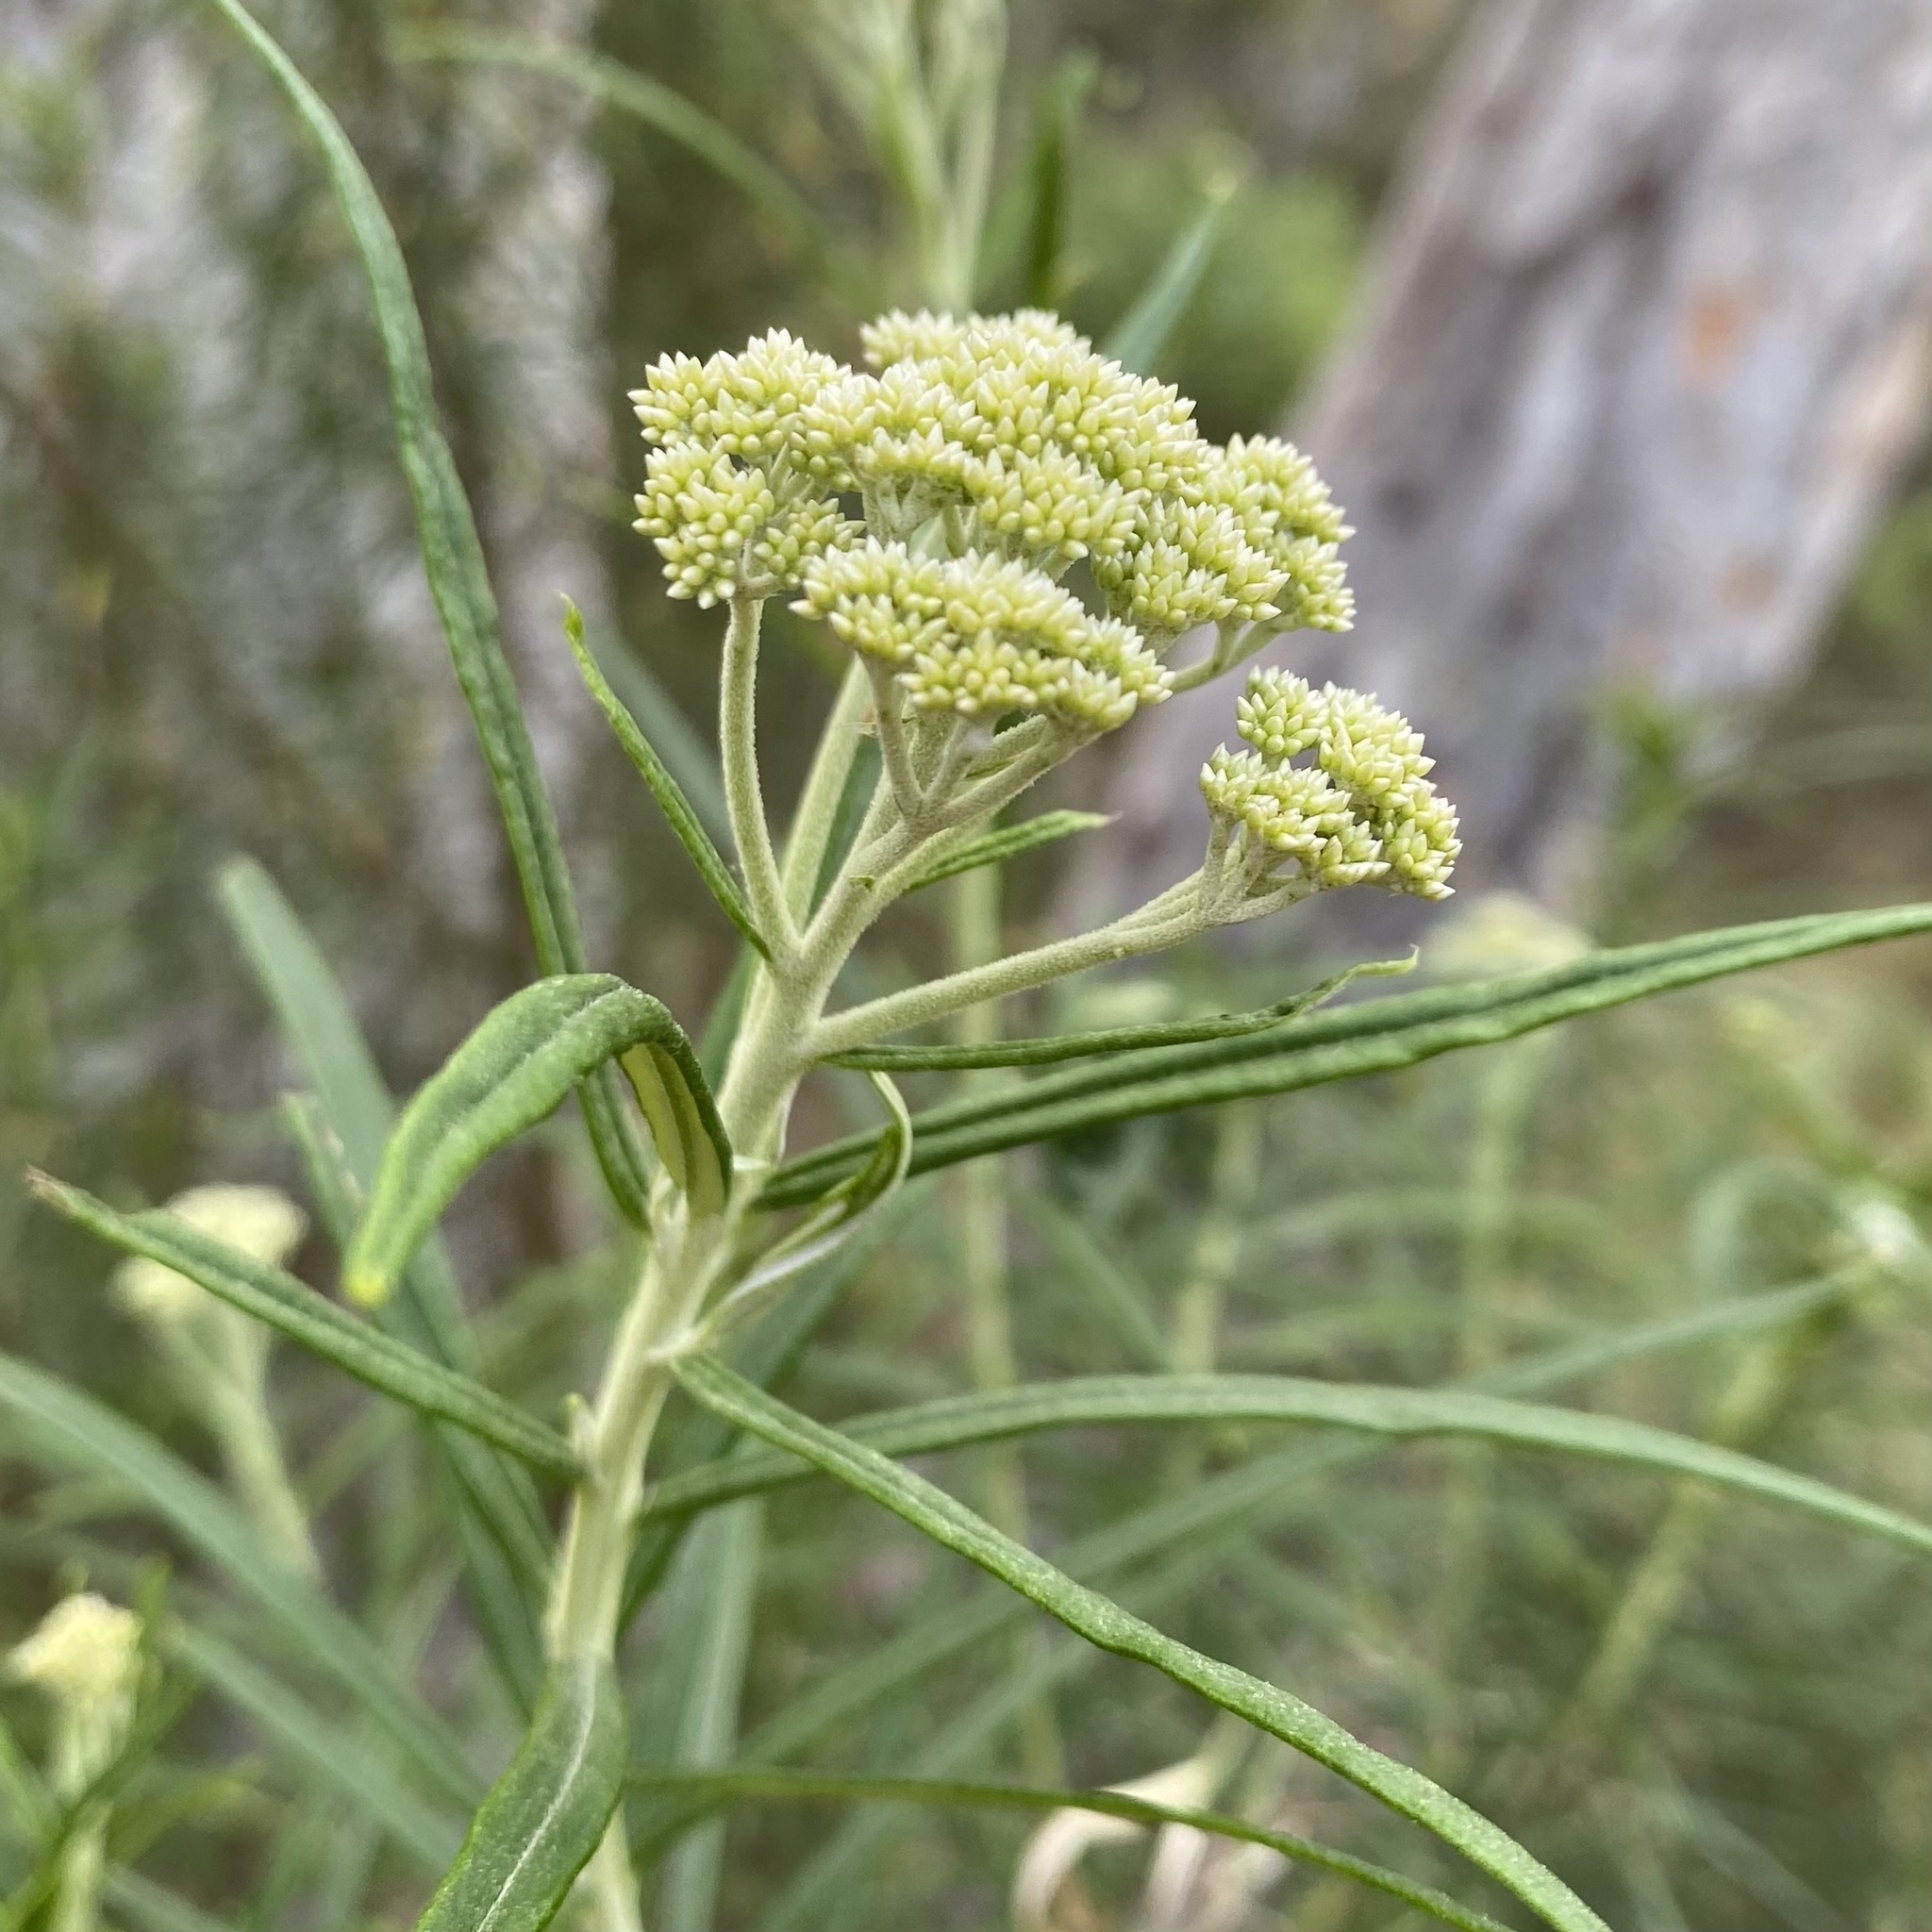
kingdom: Plantae
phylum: Tracheophyta
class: Magnoliopsida
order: Asterales
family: Asteraceae
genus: Cassinia
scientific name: Cassinia longifolia
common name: Longleaf-dogwood
